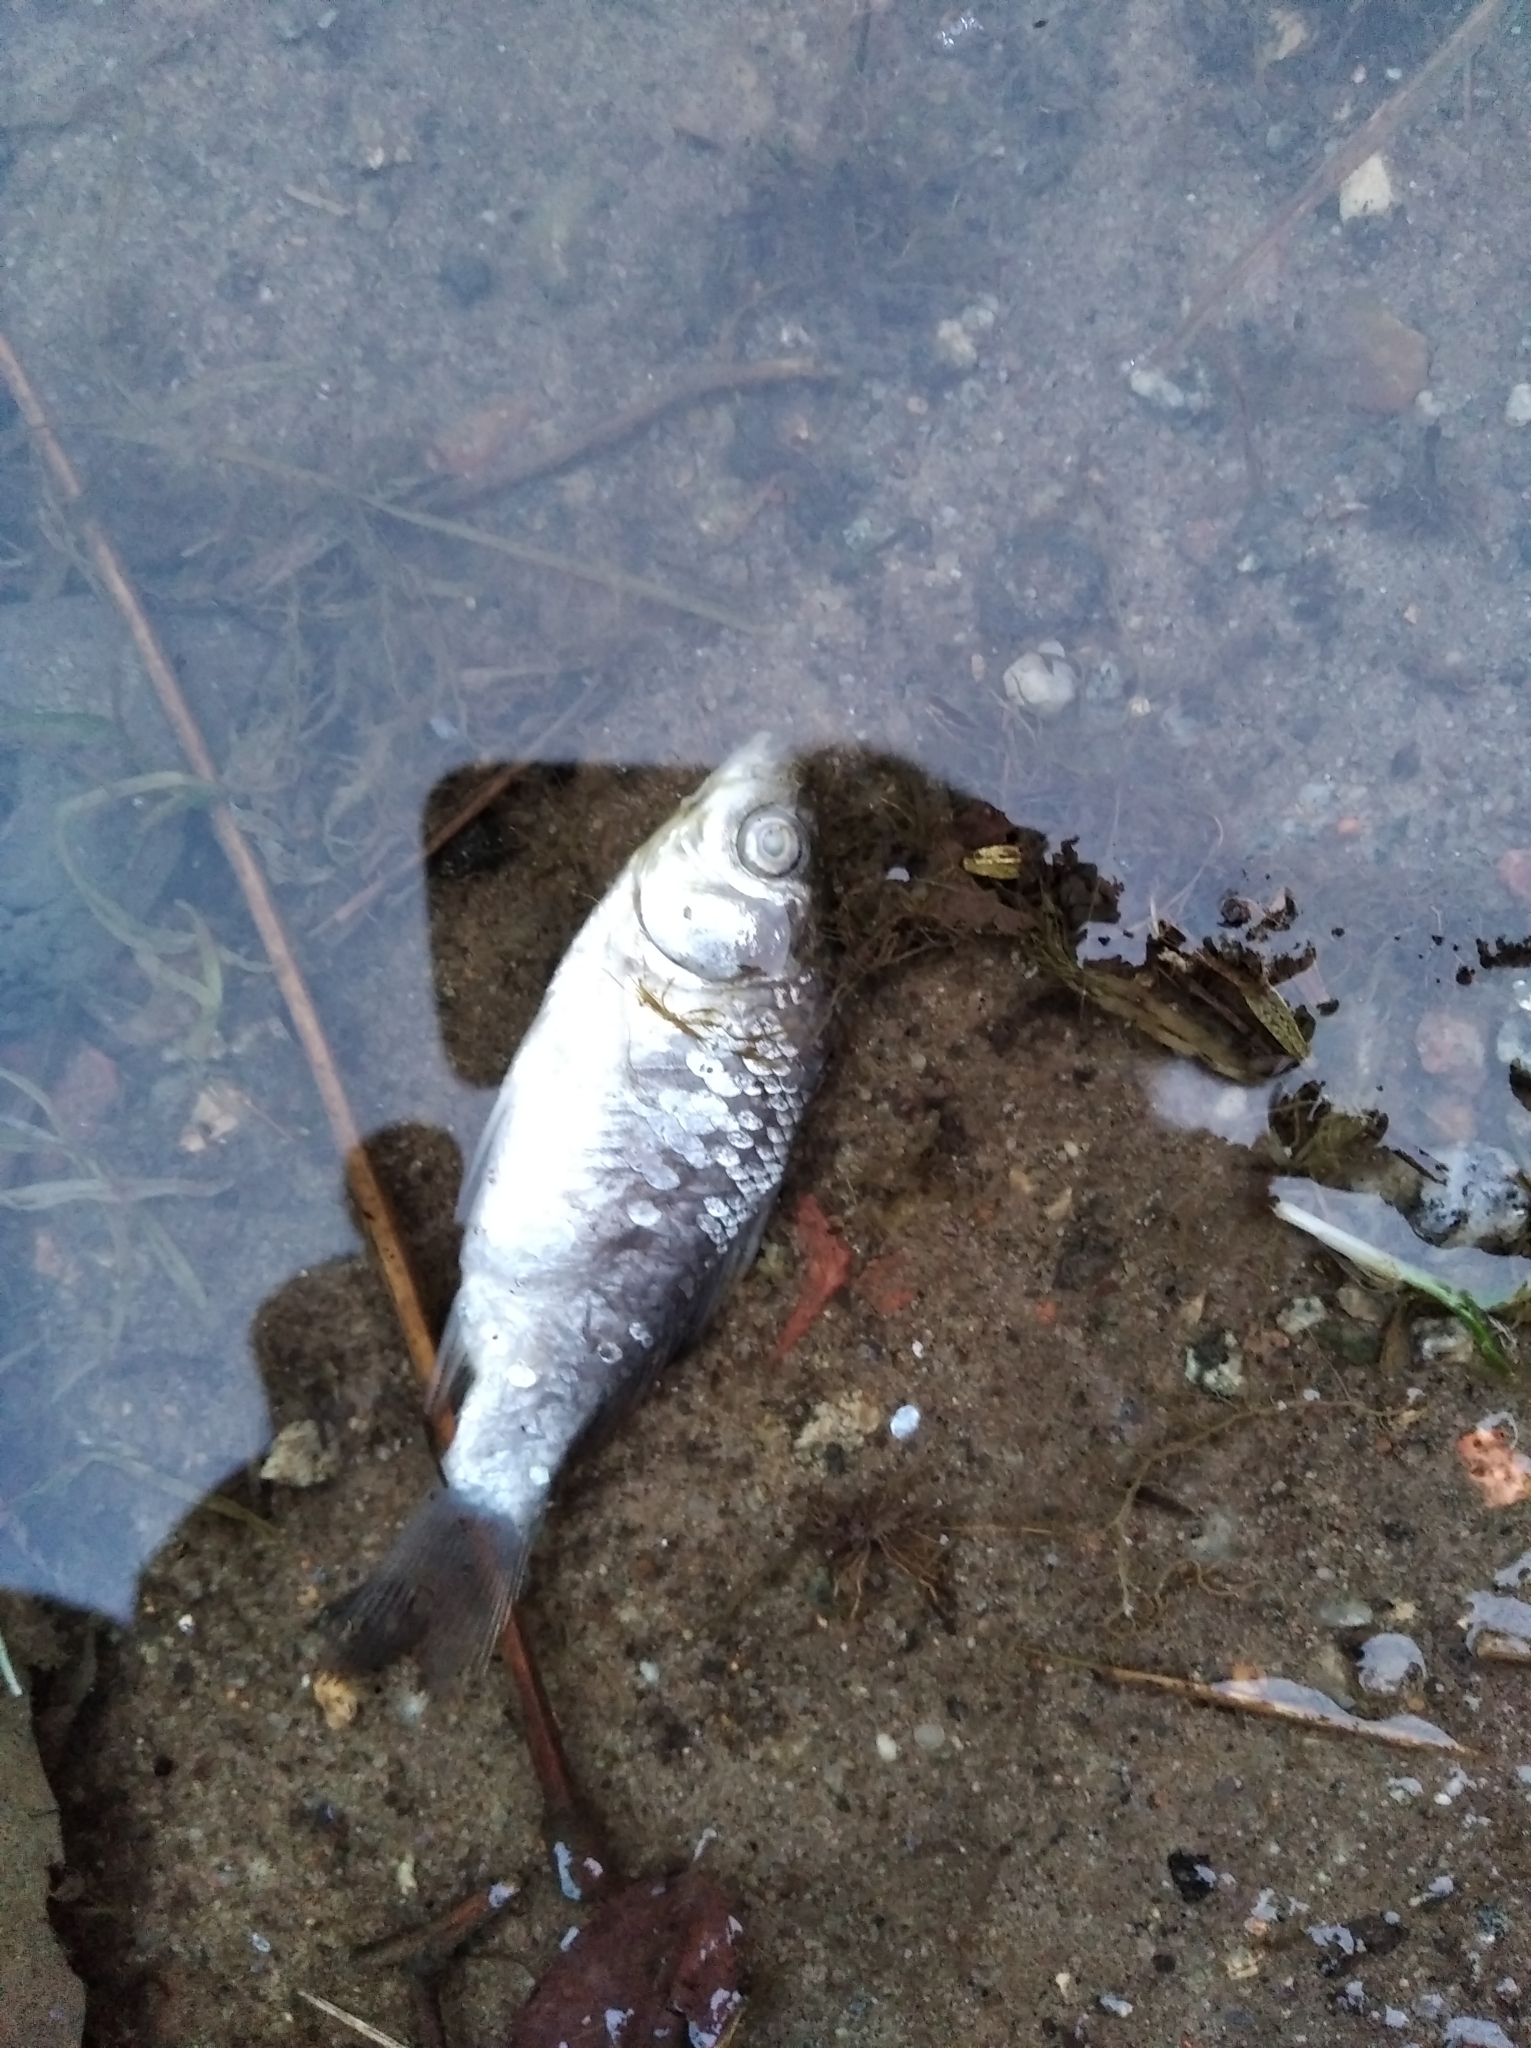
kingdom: Animalia
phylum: Chordata
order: Cypriniformes
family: Cyprinidae
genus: Carassius
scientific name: Carassius gibelio
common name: Prussian carp
